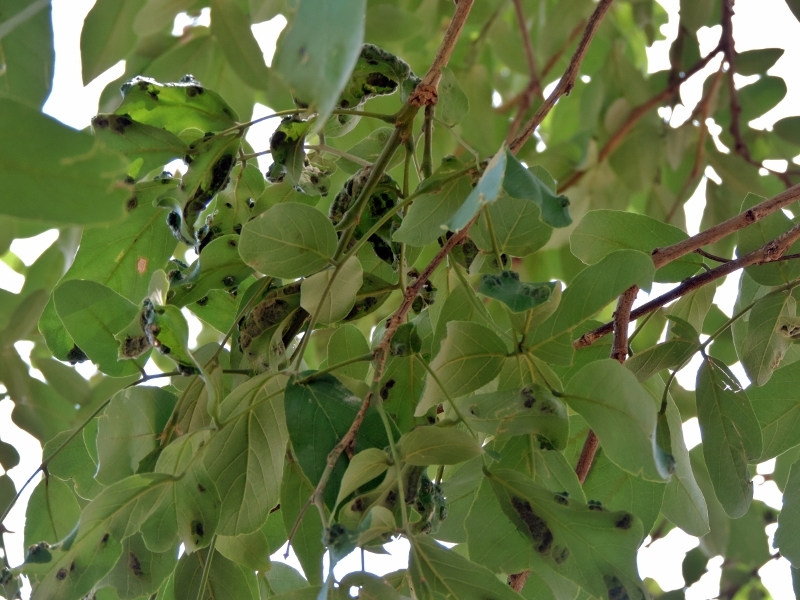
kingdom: Plantae
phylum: Tracheophyta
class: Magnoliopsida
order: Fabales
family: Fabaceae
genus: Philenoptera
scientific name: Philenoptera violacea
